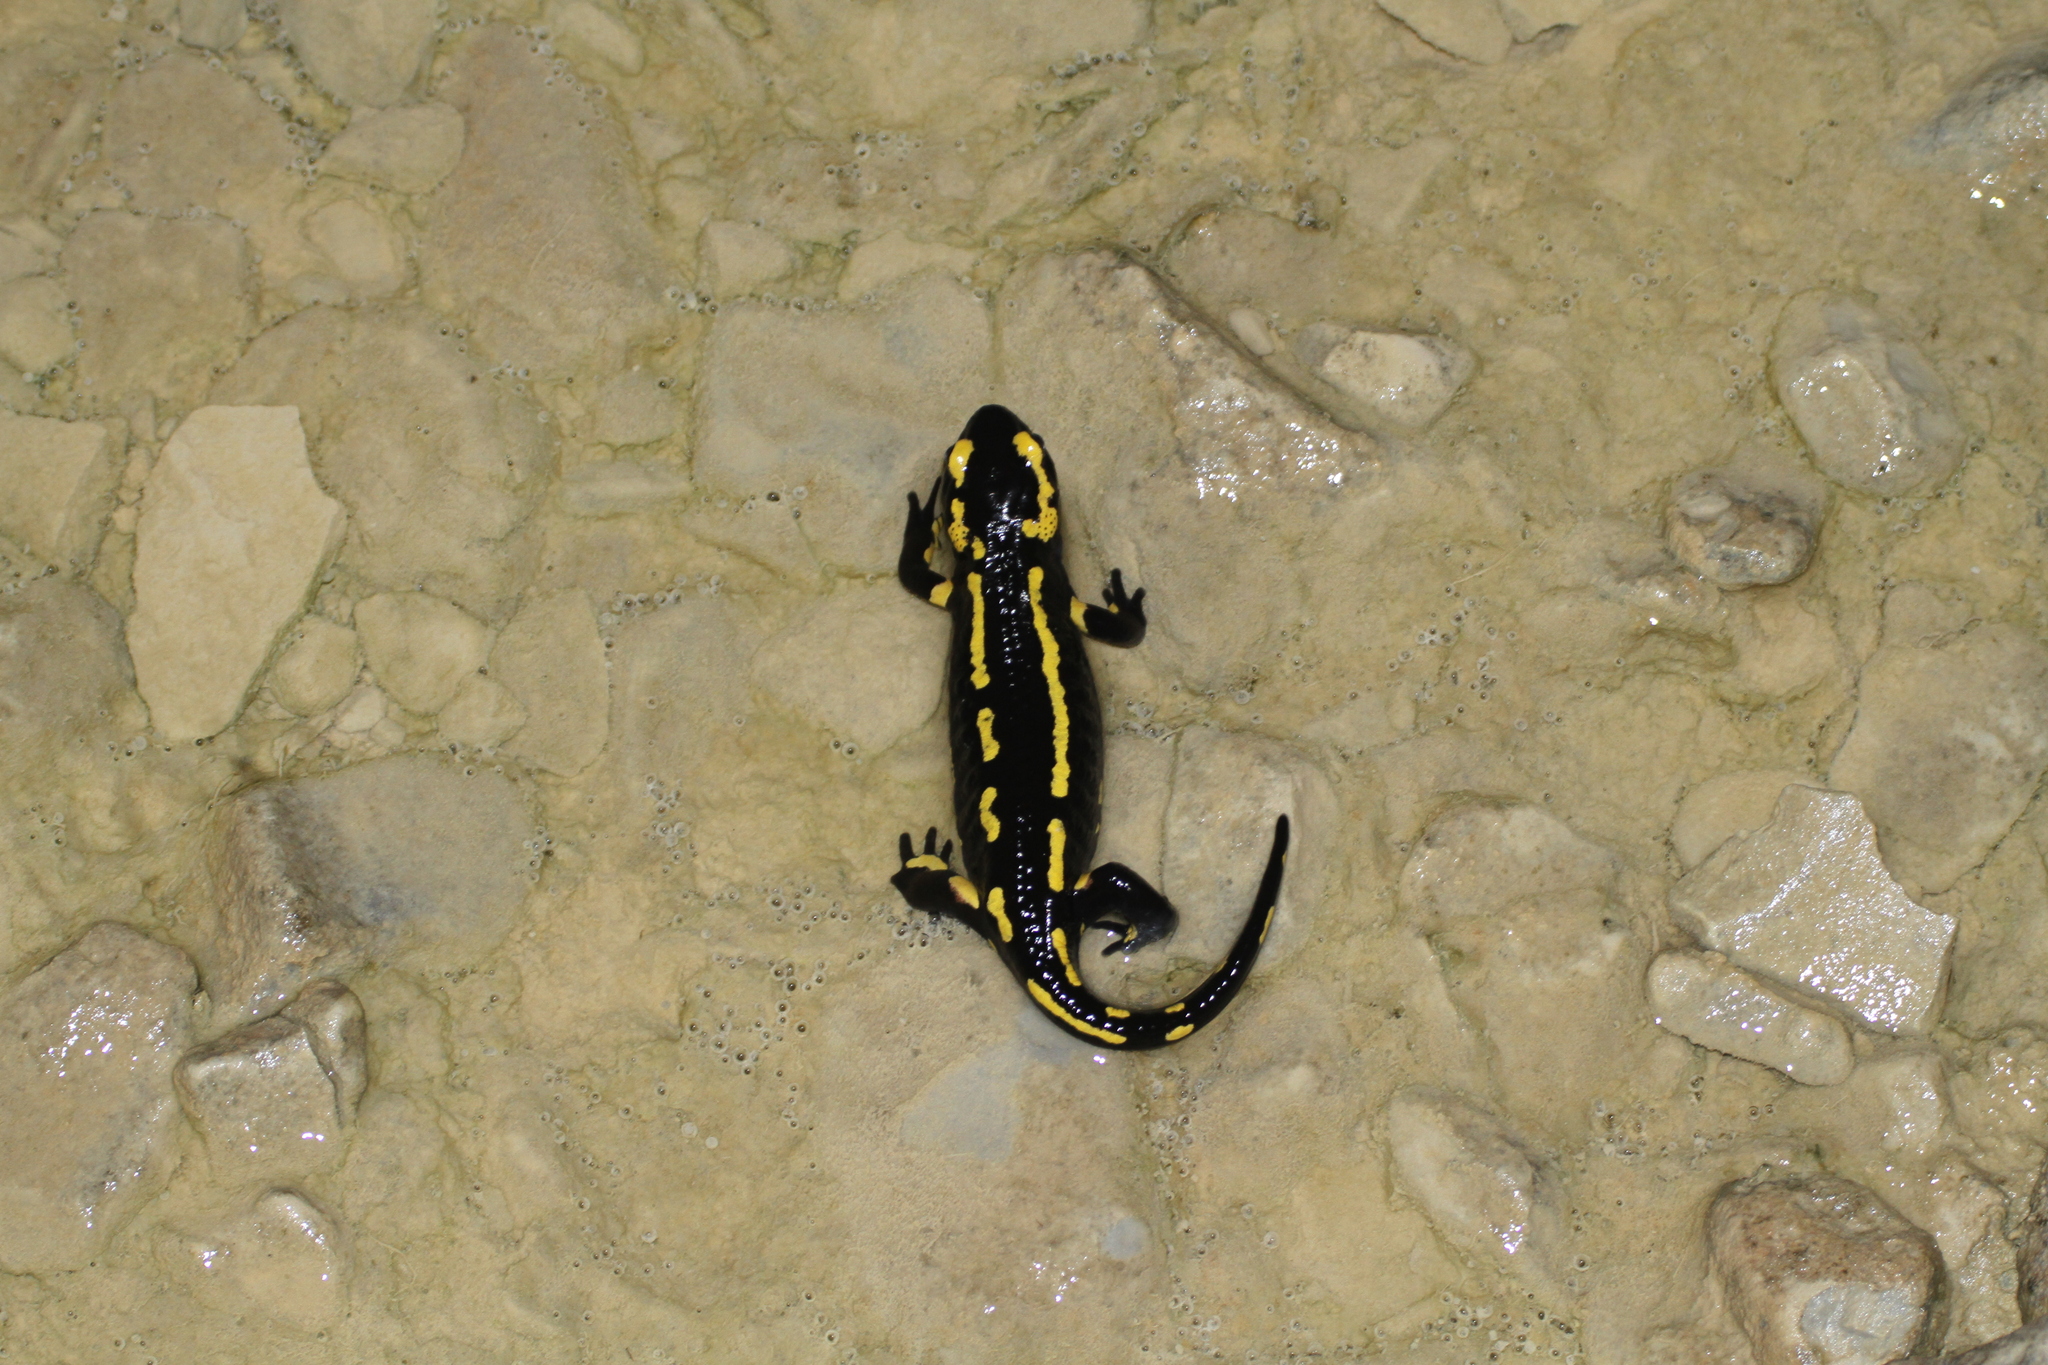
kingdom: Animalia
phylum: Chordata
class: Amphibia
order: Caudata
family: Salamandridae
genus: Salamandra
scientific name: Salamandra salamandra
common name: Fire salamander
